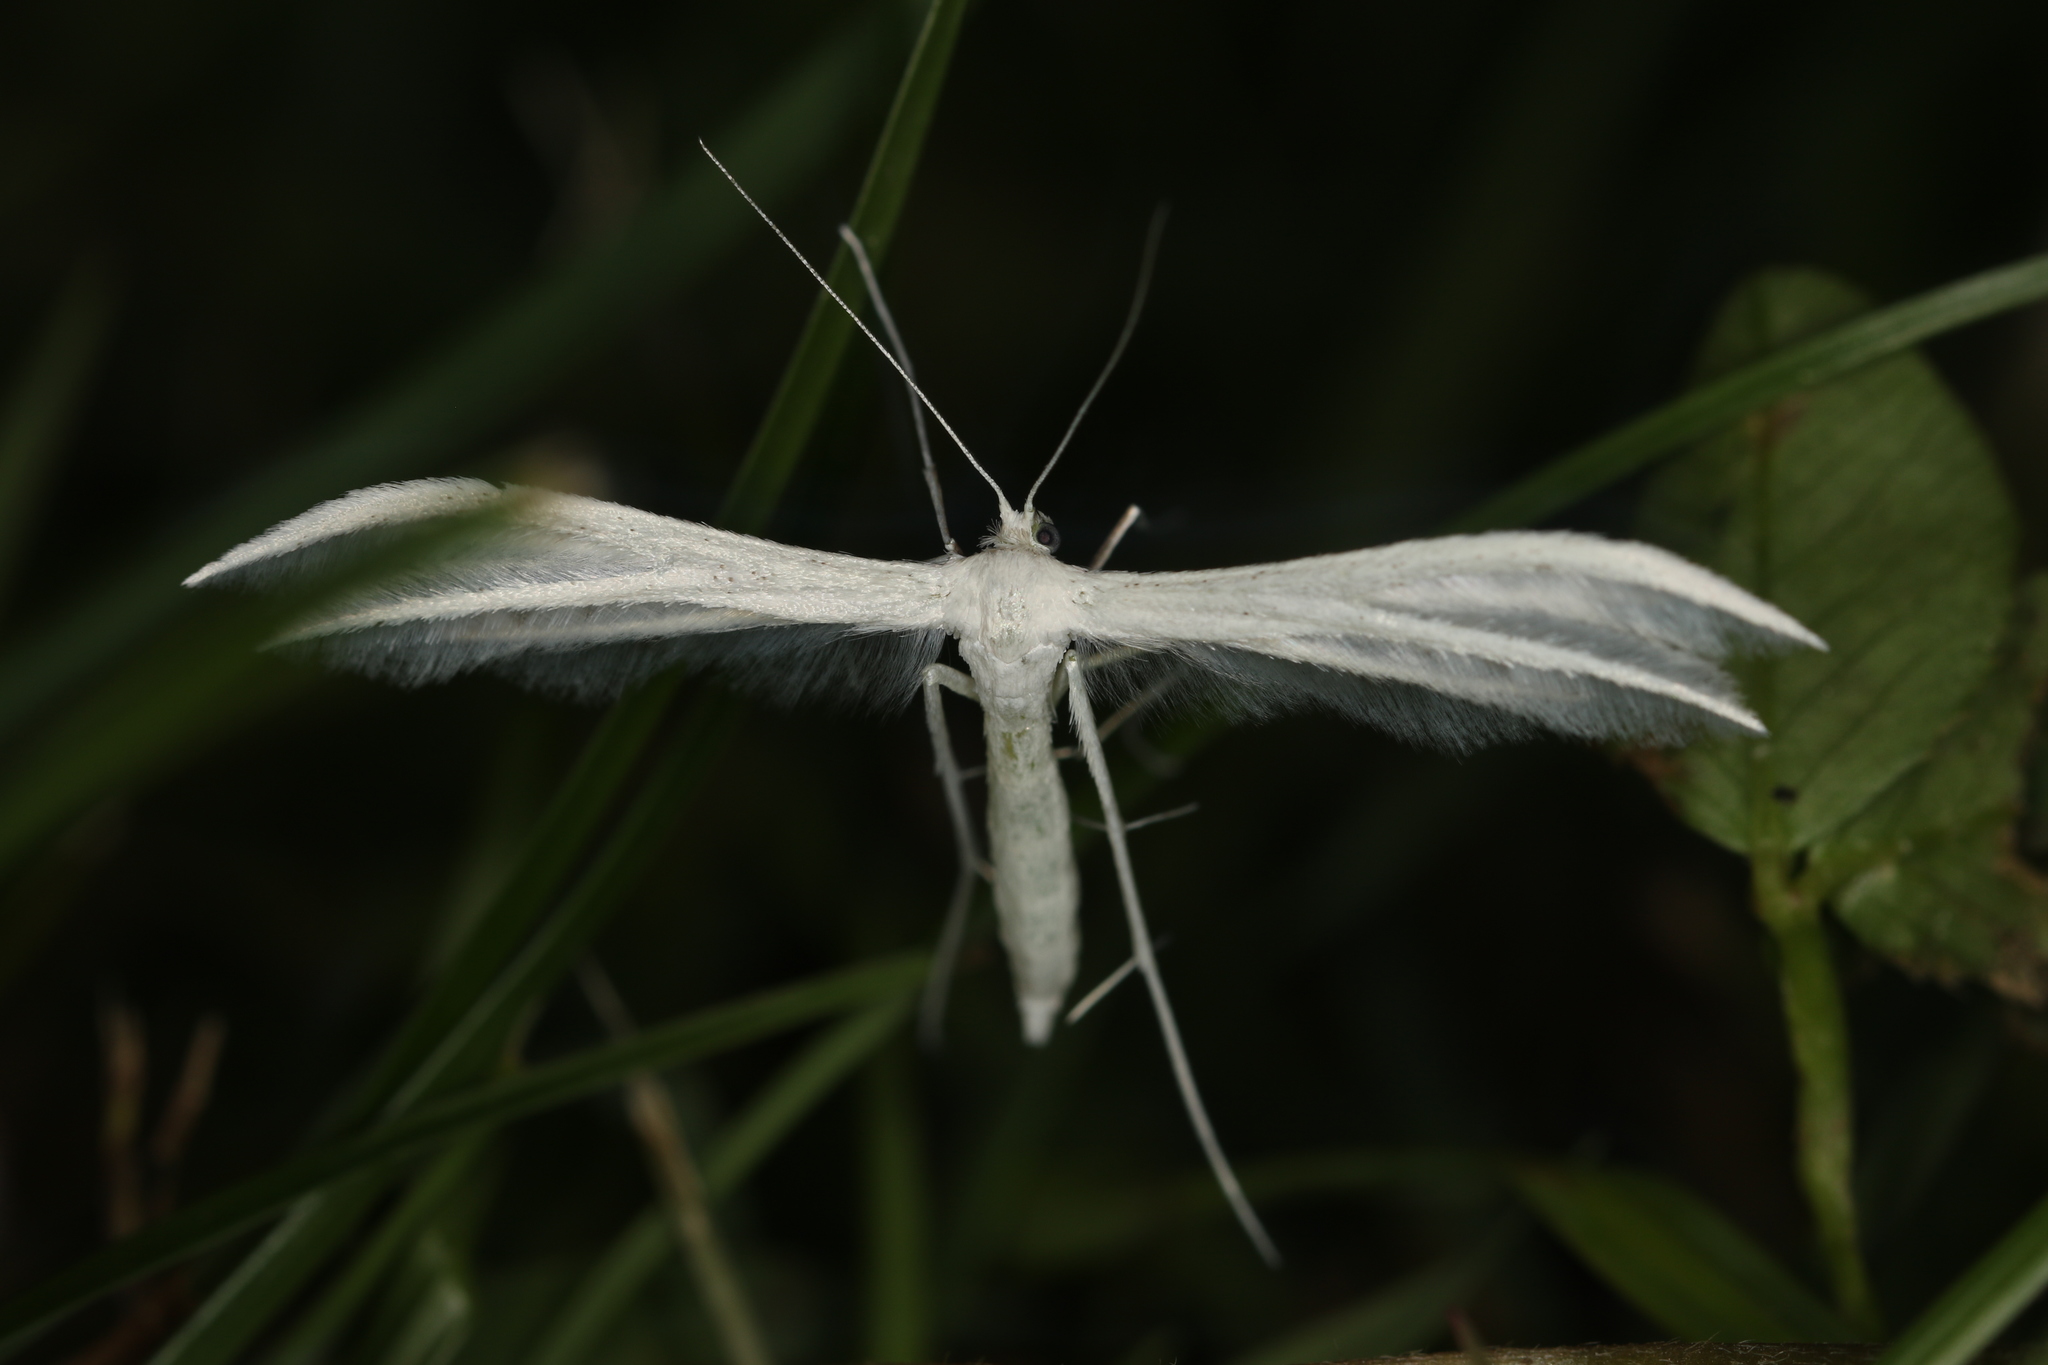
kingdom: Animalia
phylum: Arthropoda
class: Insecta
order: Lepidoptera
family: Pterophoridae
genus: Pterophorus
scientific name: Pterophorus pentadactyla
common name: White plume moth
